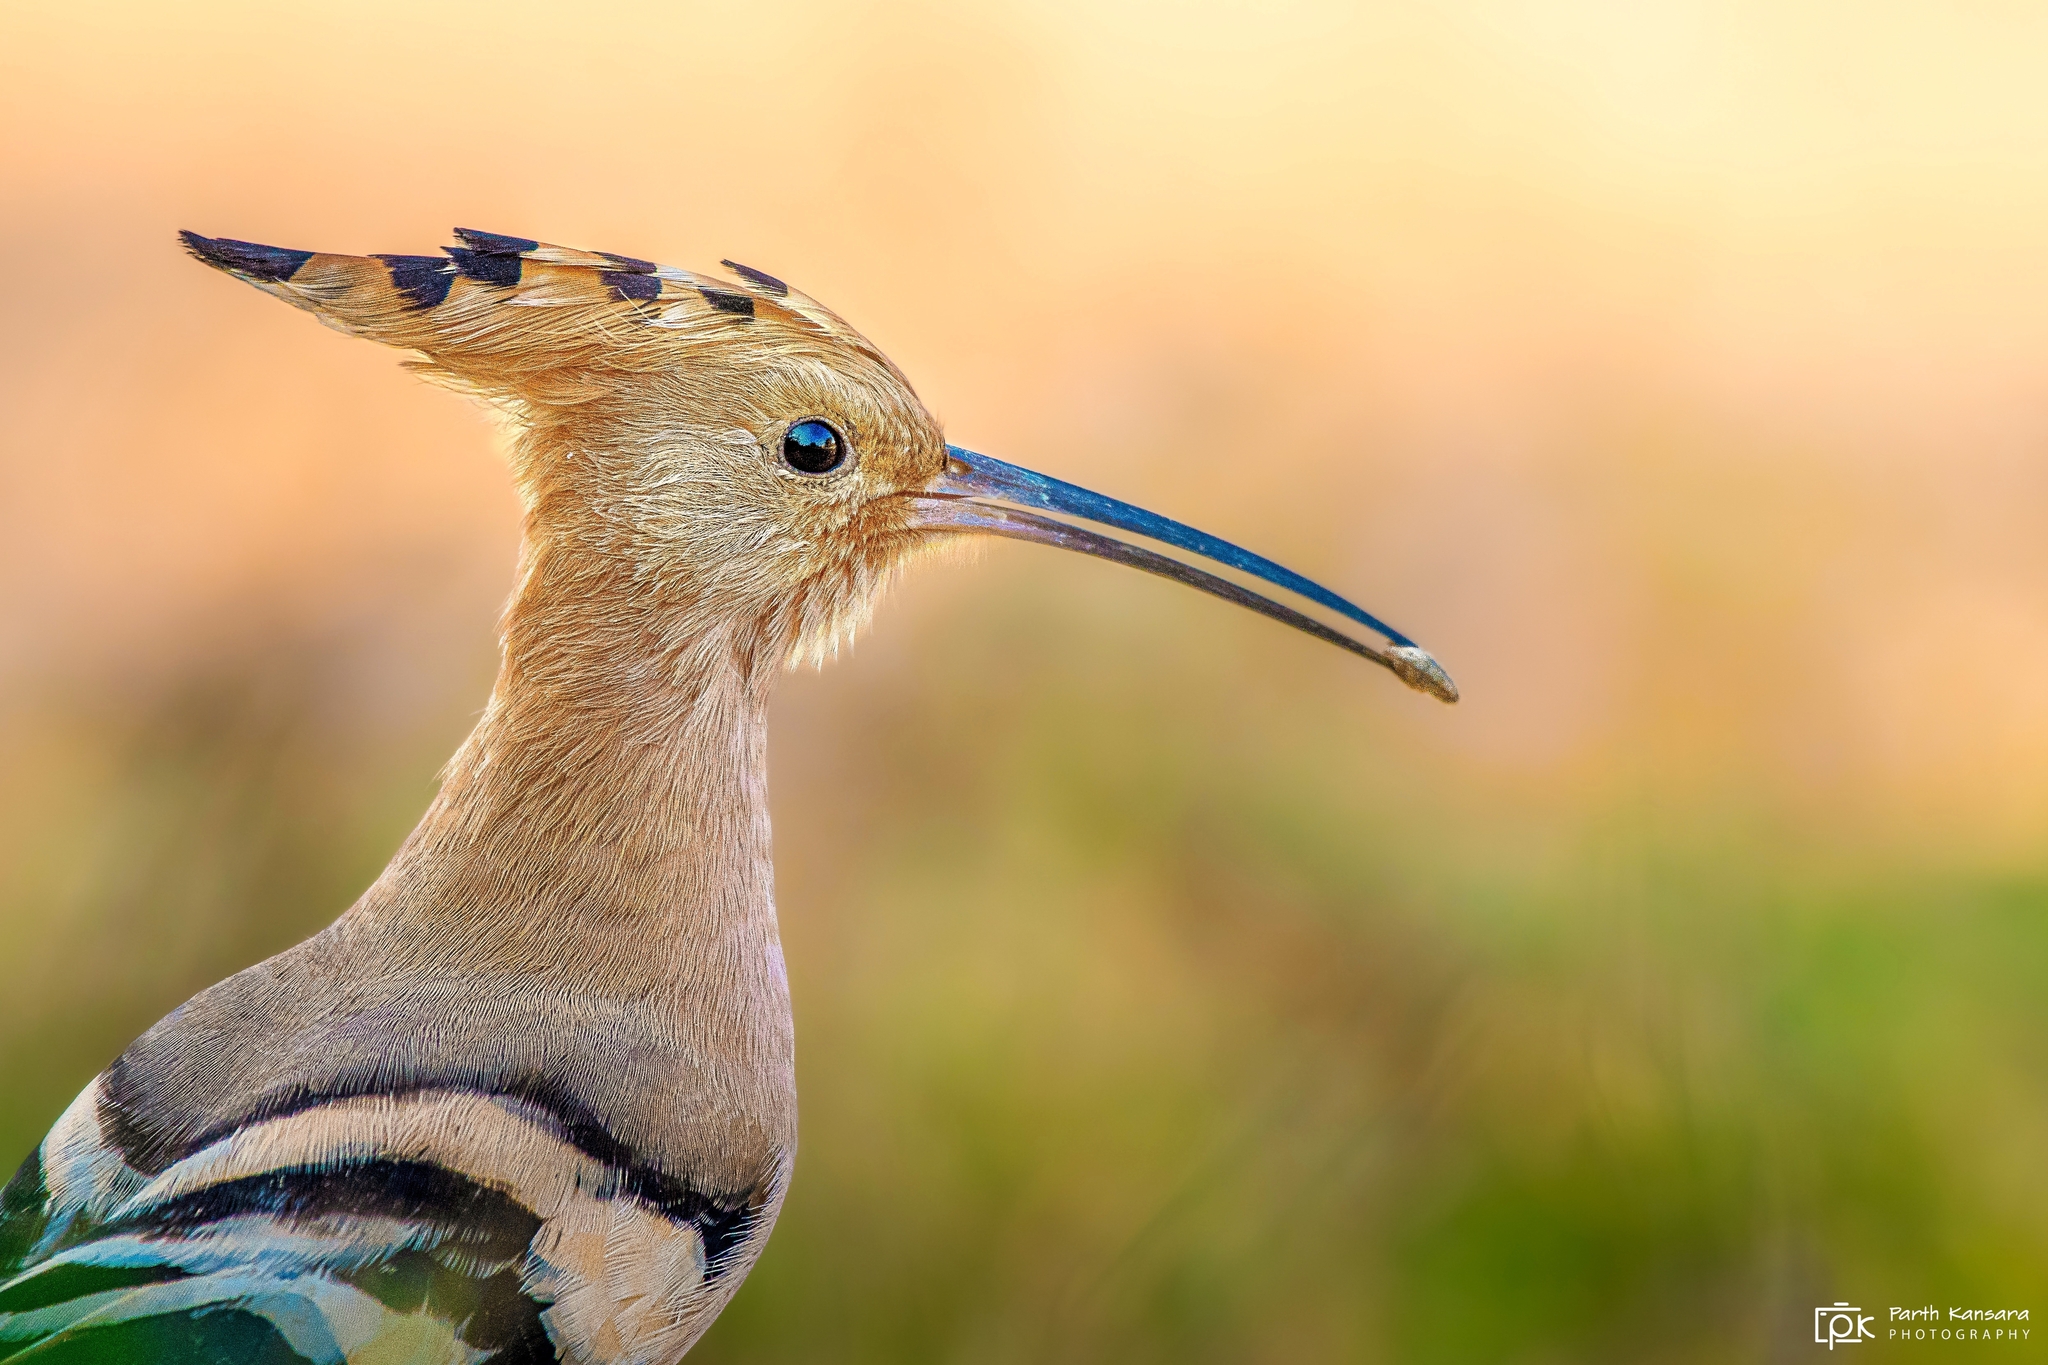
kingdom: Animalia
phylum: Chordata
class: Aves
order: Bucerotiformes
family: Upupidae
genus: Upupa
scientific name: Upupa epops
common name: Eurasian hoopoe
